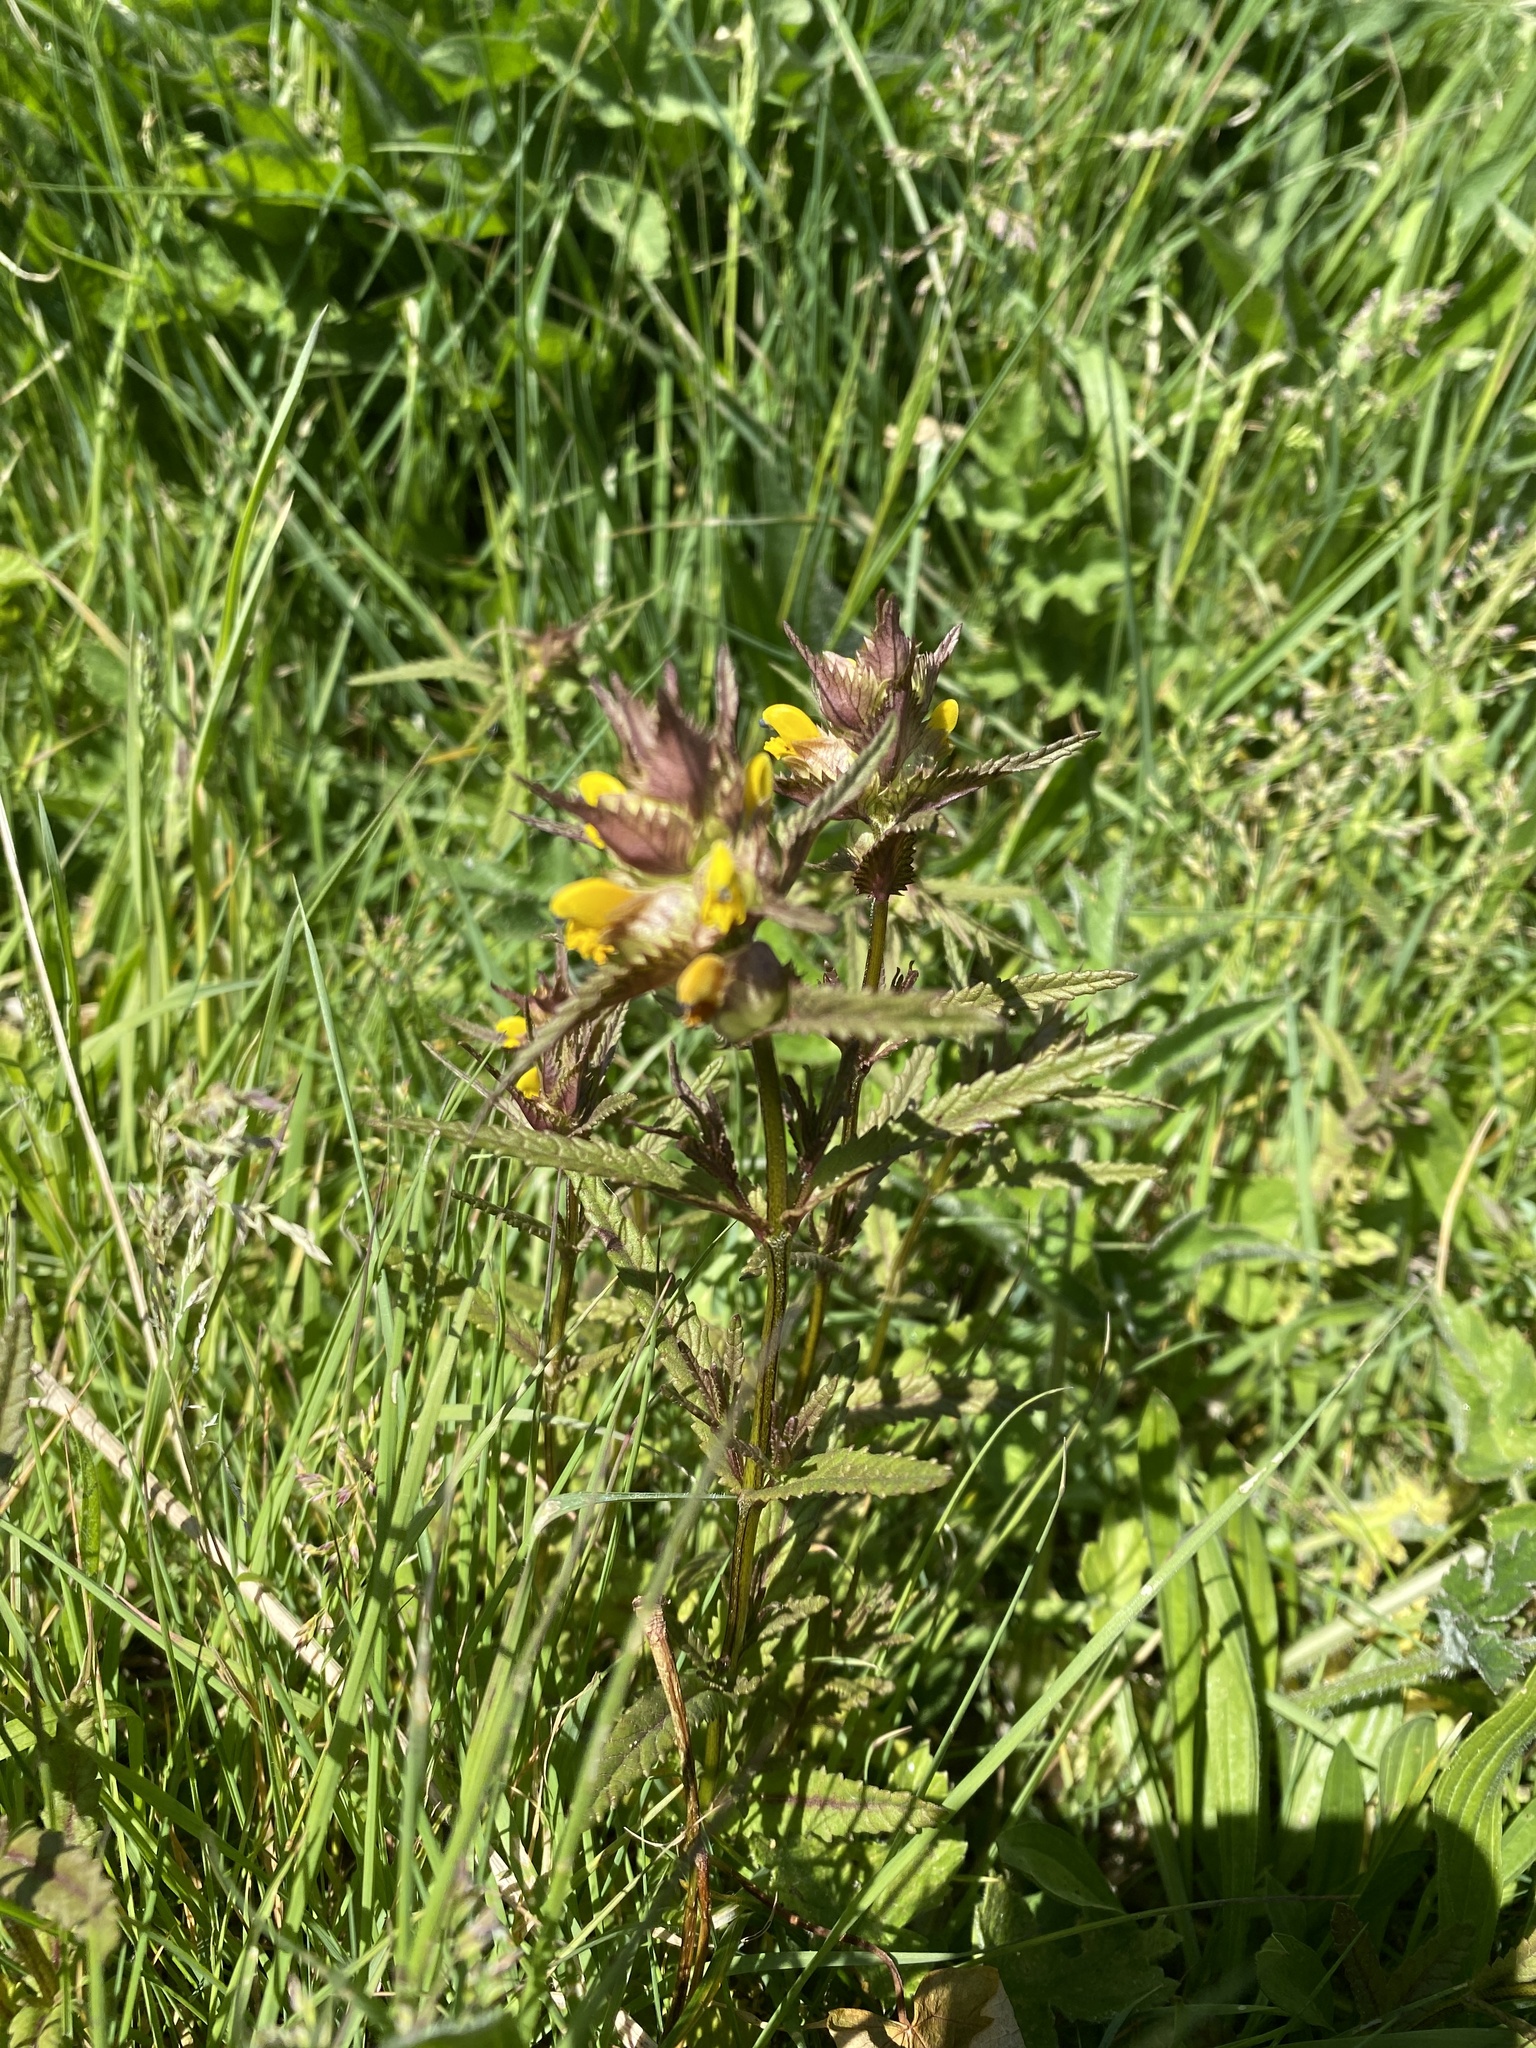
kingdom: Plantae
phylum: Tracheophyta
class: Magnoliopsida
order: Lamiales
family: Orobanchaceae
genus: Rhinanthus
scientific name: Rhinanthus minor
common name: Yellow-rattle
